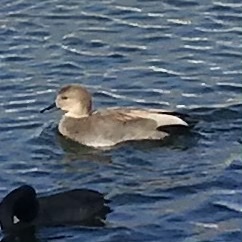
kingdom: Animalia
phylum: Chordata
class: Aves
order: Anseriformes
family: Anatidae
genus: Mareca
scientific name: Mareca strepera
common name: Gadwall
